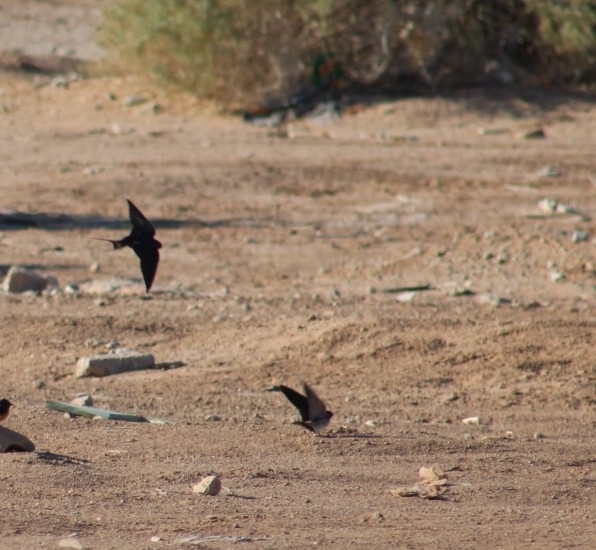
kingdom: Animalia
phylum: Chordata
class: Aves
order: Passeriformes
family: Hirundinidae
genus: Hirundo
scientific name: Hirundo rustica
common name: Barn swallow
